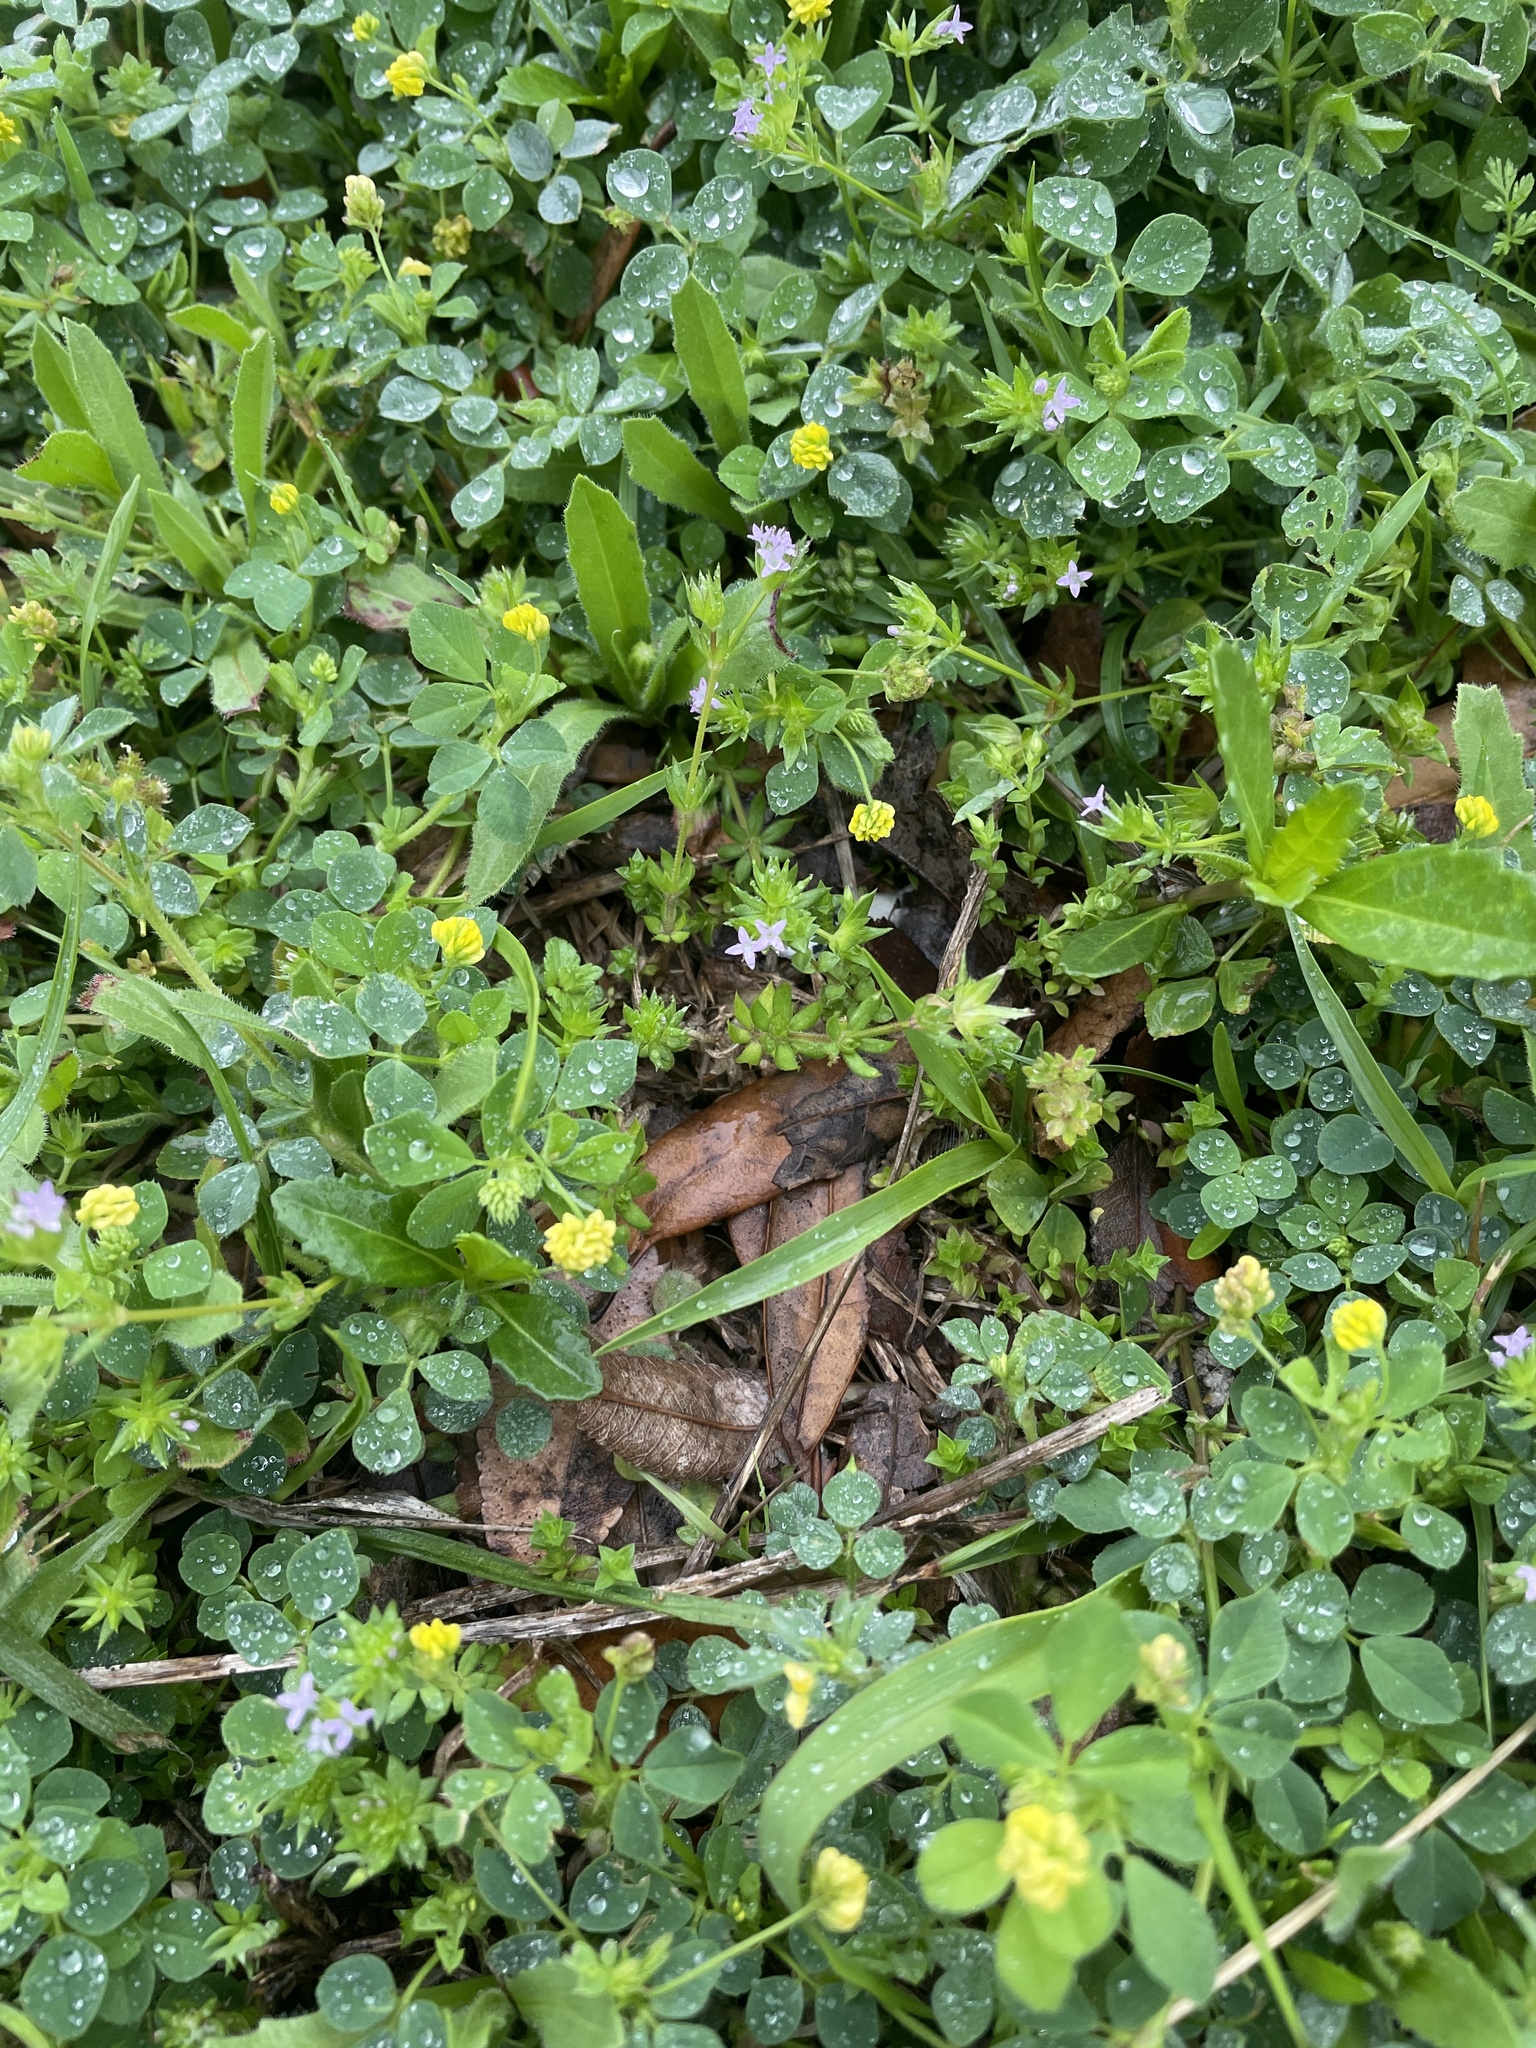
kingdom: Plantae
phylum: Tracheophyta
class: Magnoliopsida
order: Gentianales
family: Rubiaceae
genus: Sherardia
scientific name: Sherardia arvensis
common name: Field madder
